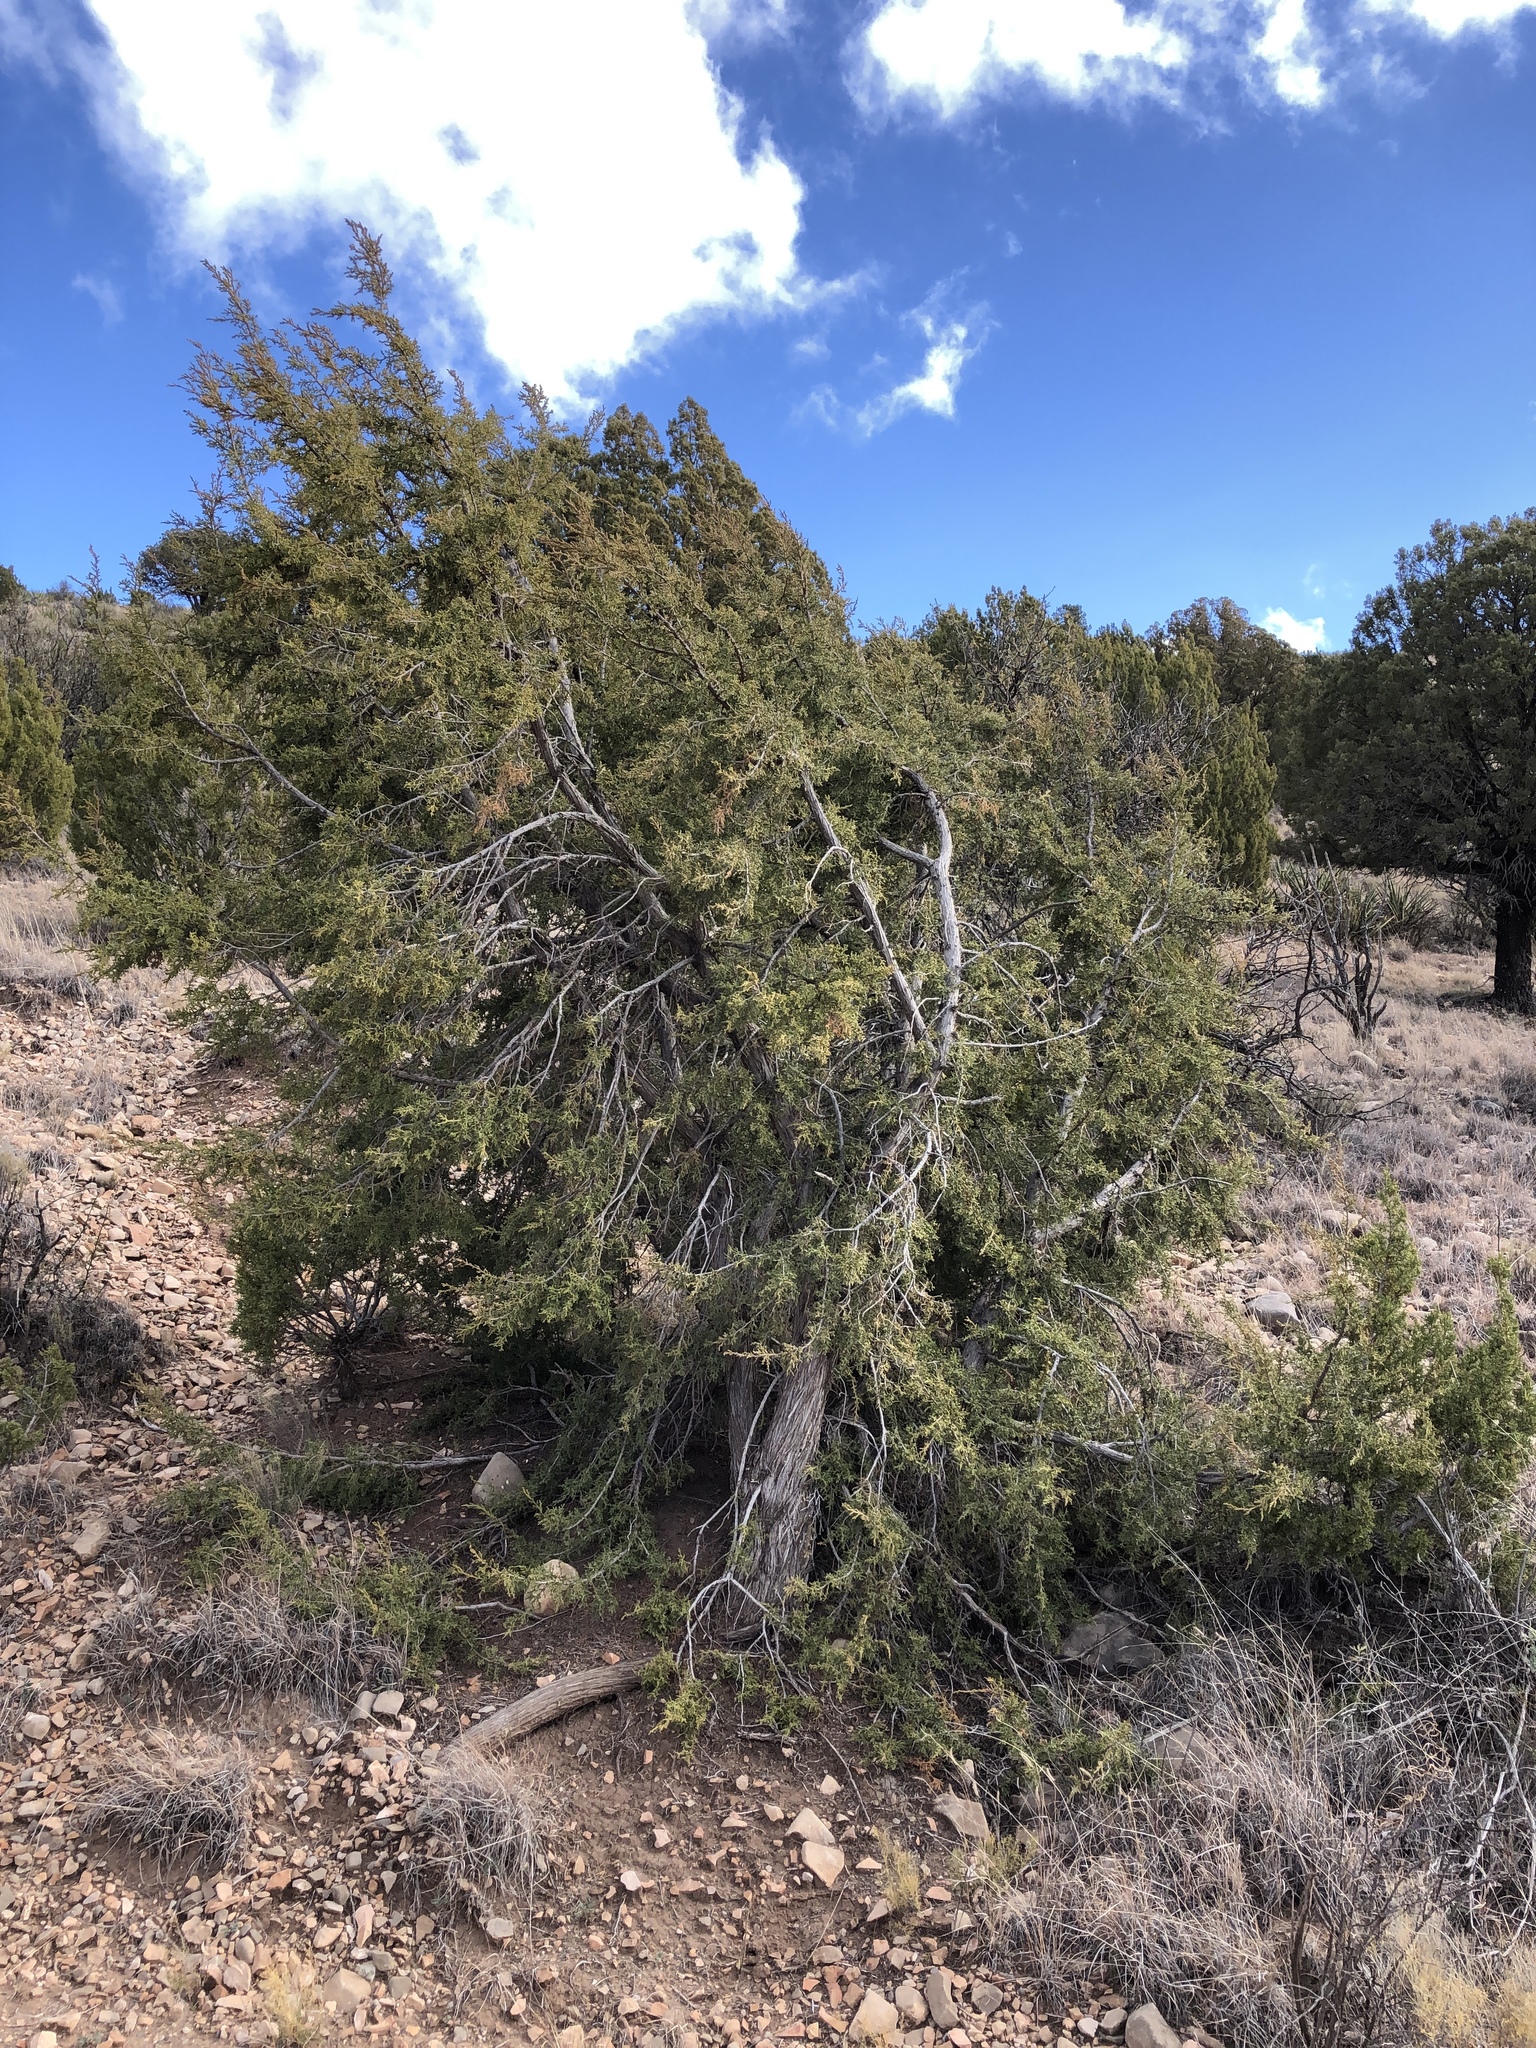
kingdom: Plantae
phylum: Tracheophyta
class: Pinopsida
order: Pinales
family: Cupressaceae
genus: Juniperus
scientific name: Juniperus monosperma
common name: One-seed juniper
